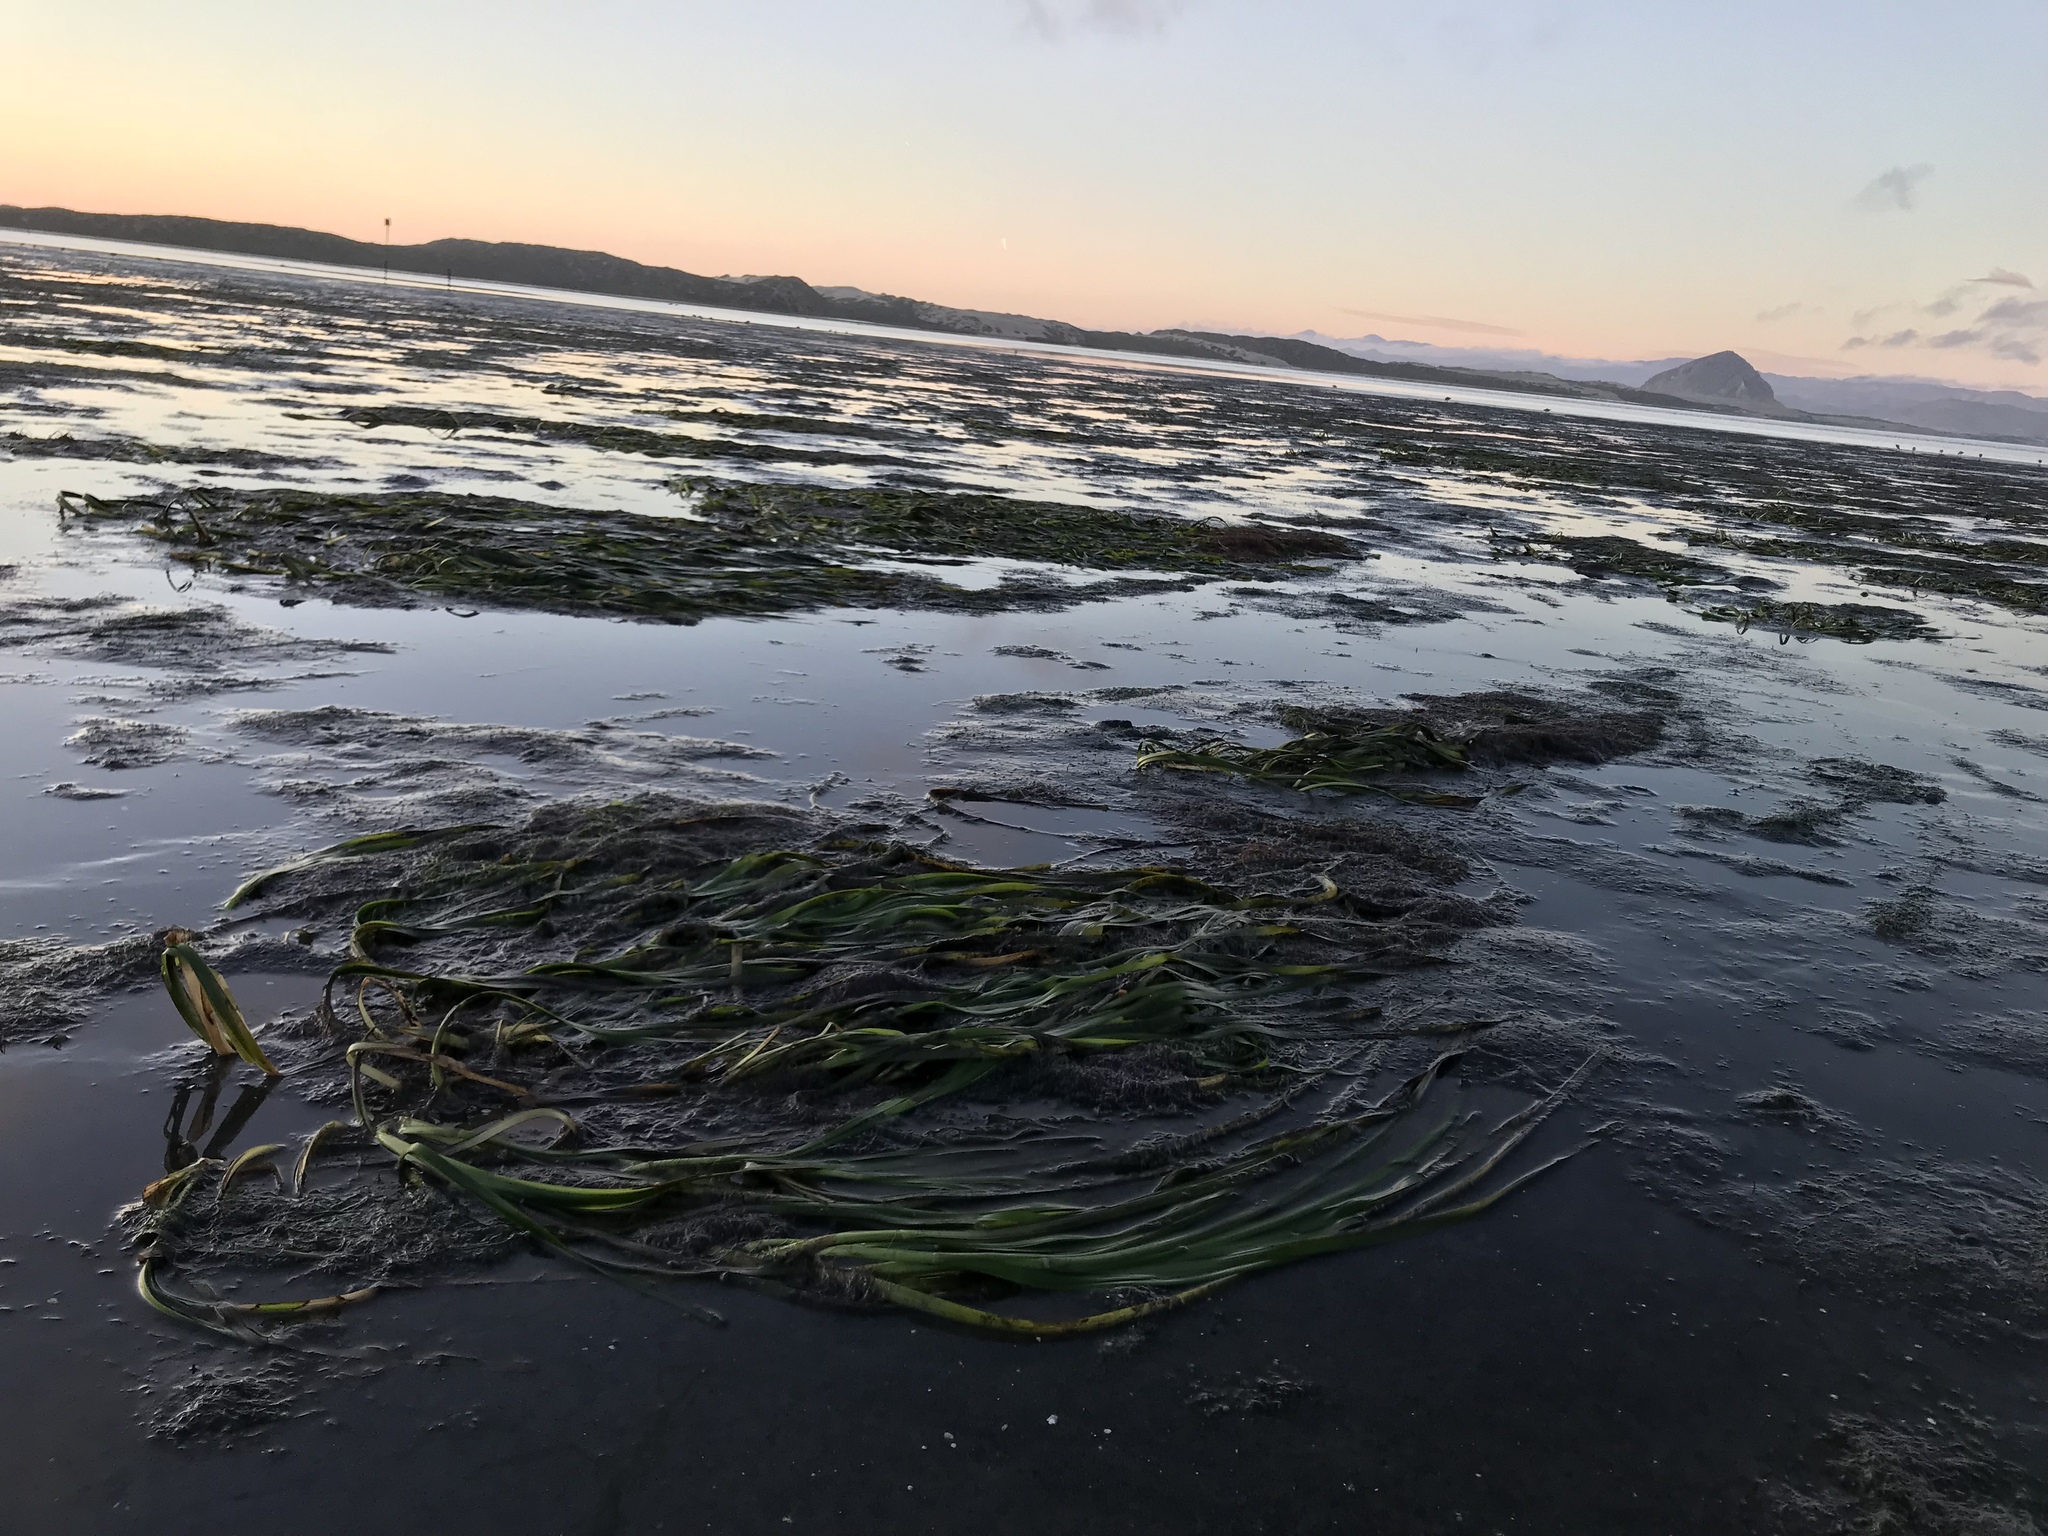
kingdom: Plantae
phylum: Tracheophyta
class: Liliopsida
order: Alismatales
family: Zosteraceae
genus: Zostera
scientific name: Zostera marina
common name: Eelgrass
